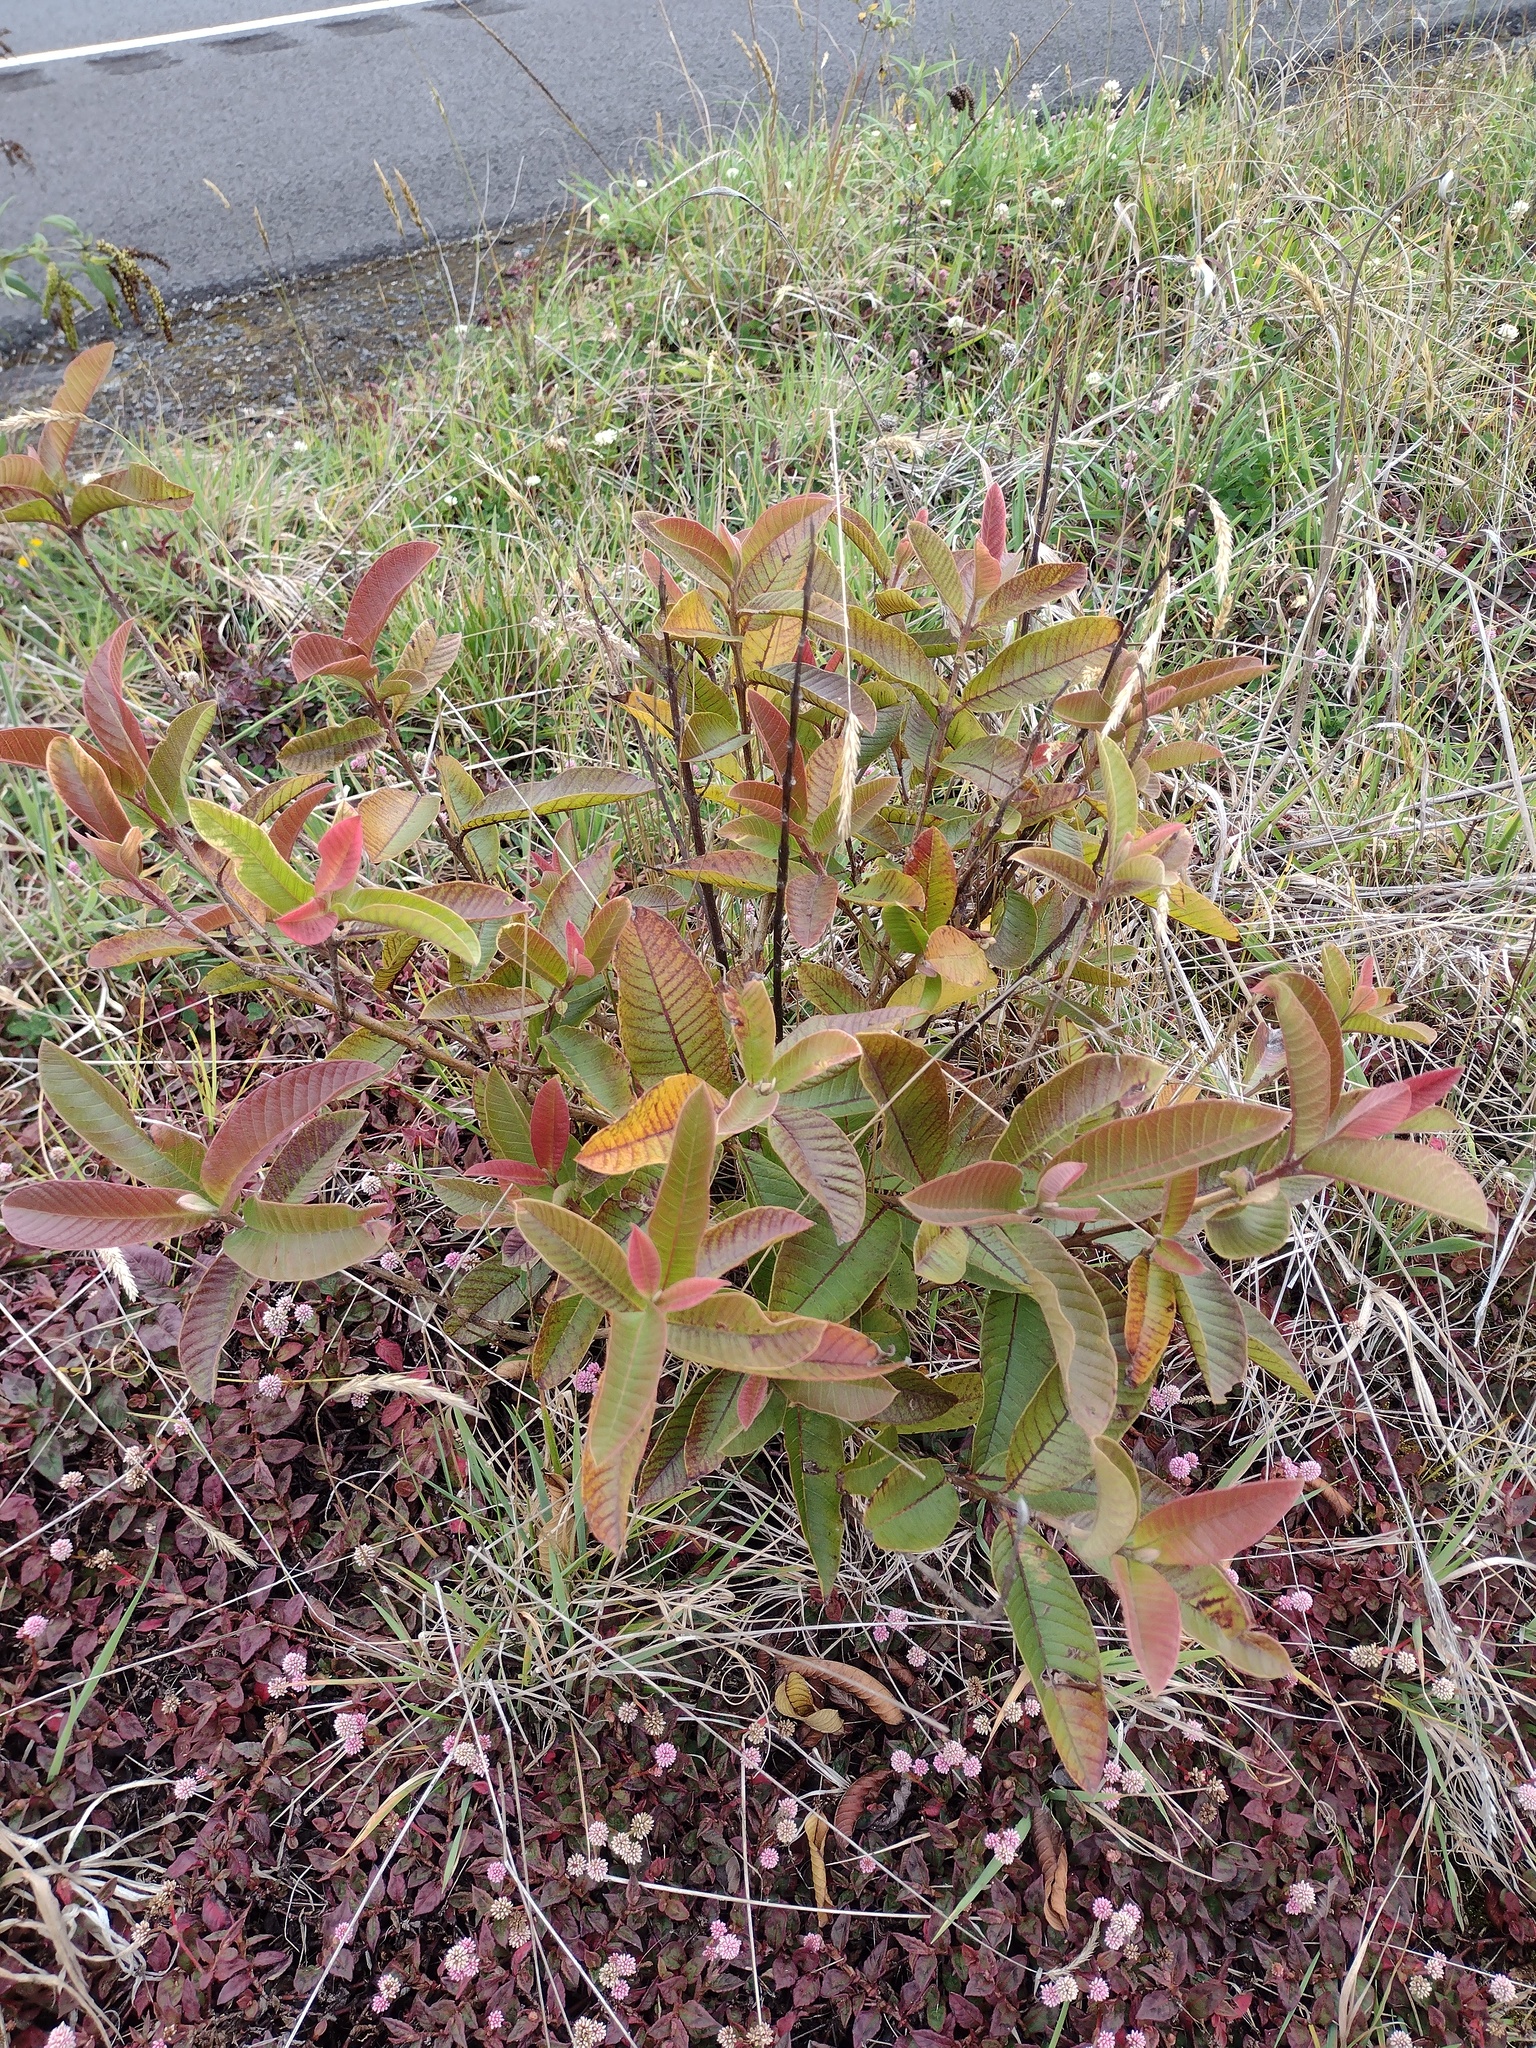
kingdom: Plantae
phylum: Tracheophyta
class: Magnoliopsida
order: Myrtales
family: Myrtaceae
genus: Psidium
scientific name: Psidium guajava
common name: Guava
